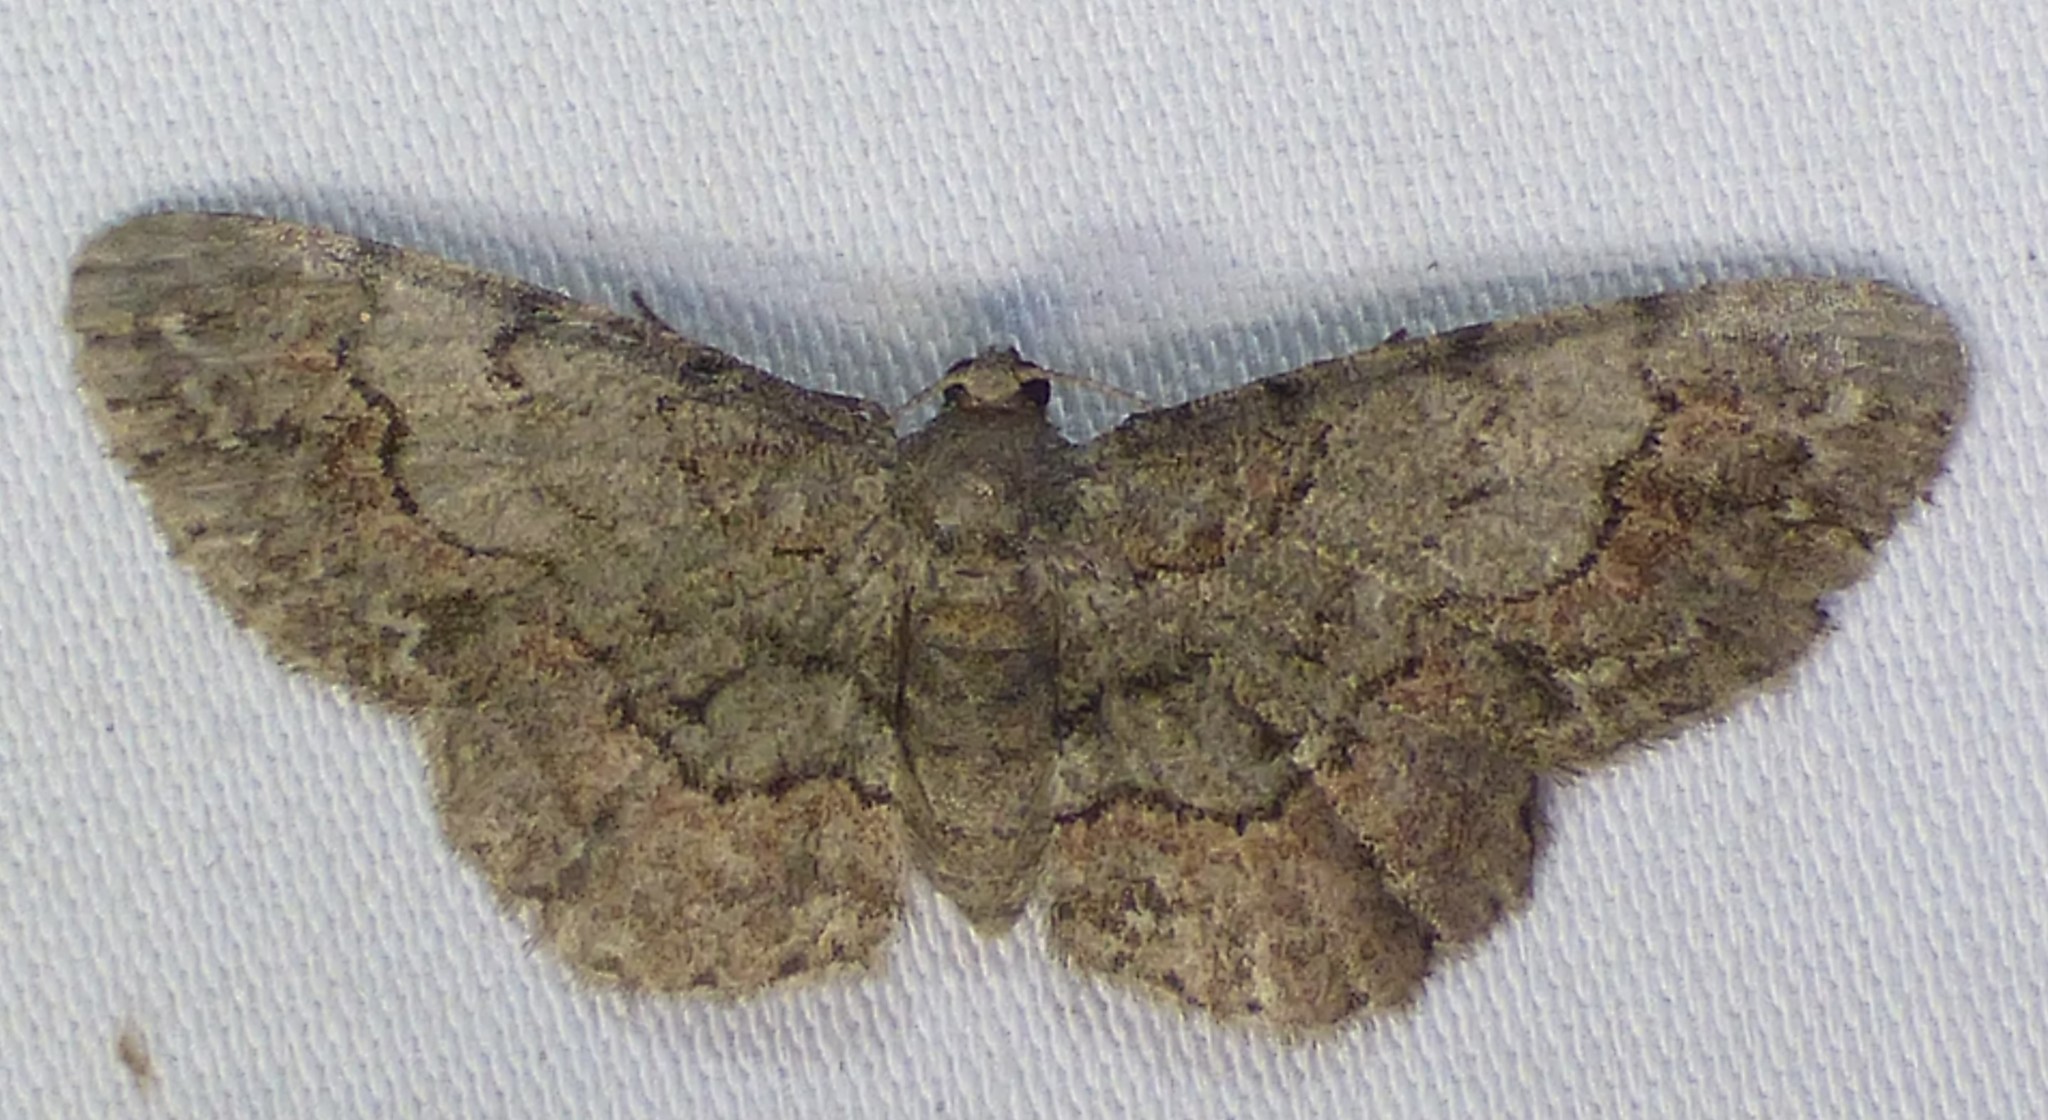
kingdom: Animalia
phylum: Arthropoda
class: Insecta
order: Lepidoptera
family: Geometridae
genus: Glenoides
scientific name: Glenoides texanaria
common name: Texas gray
